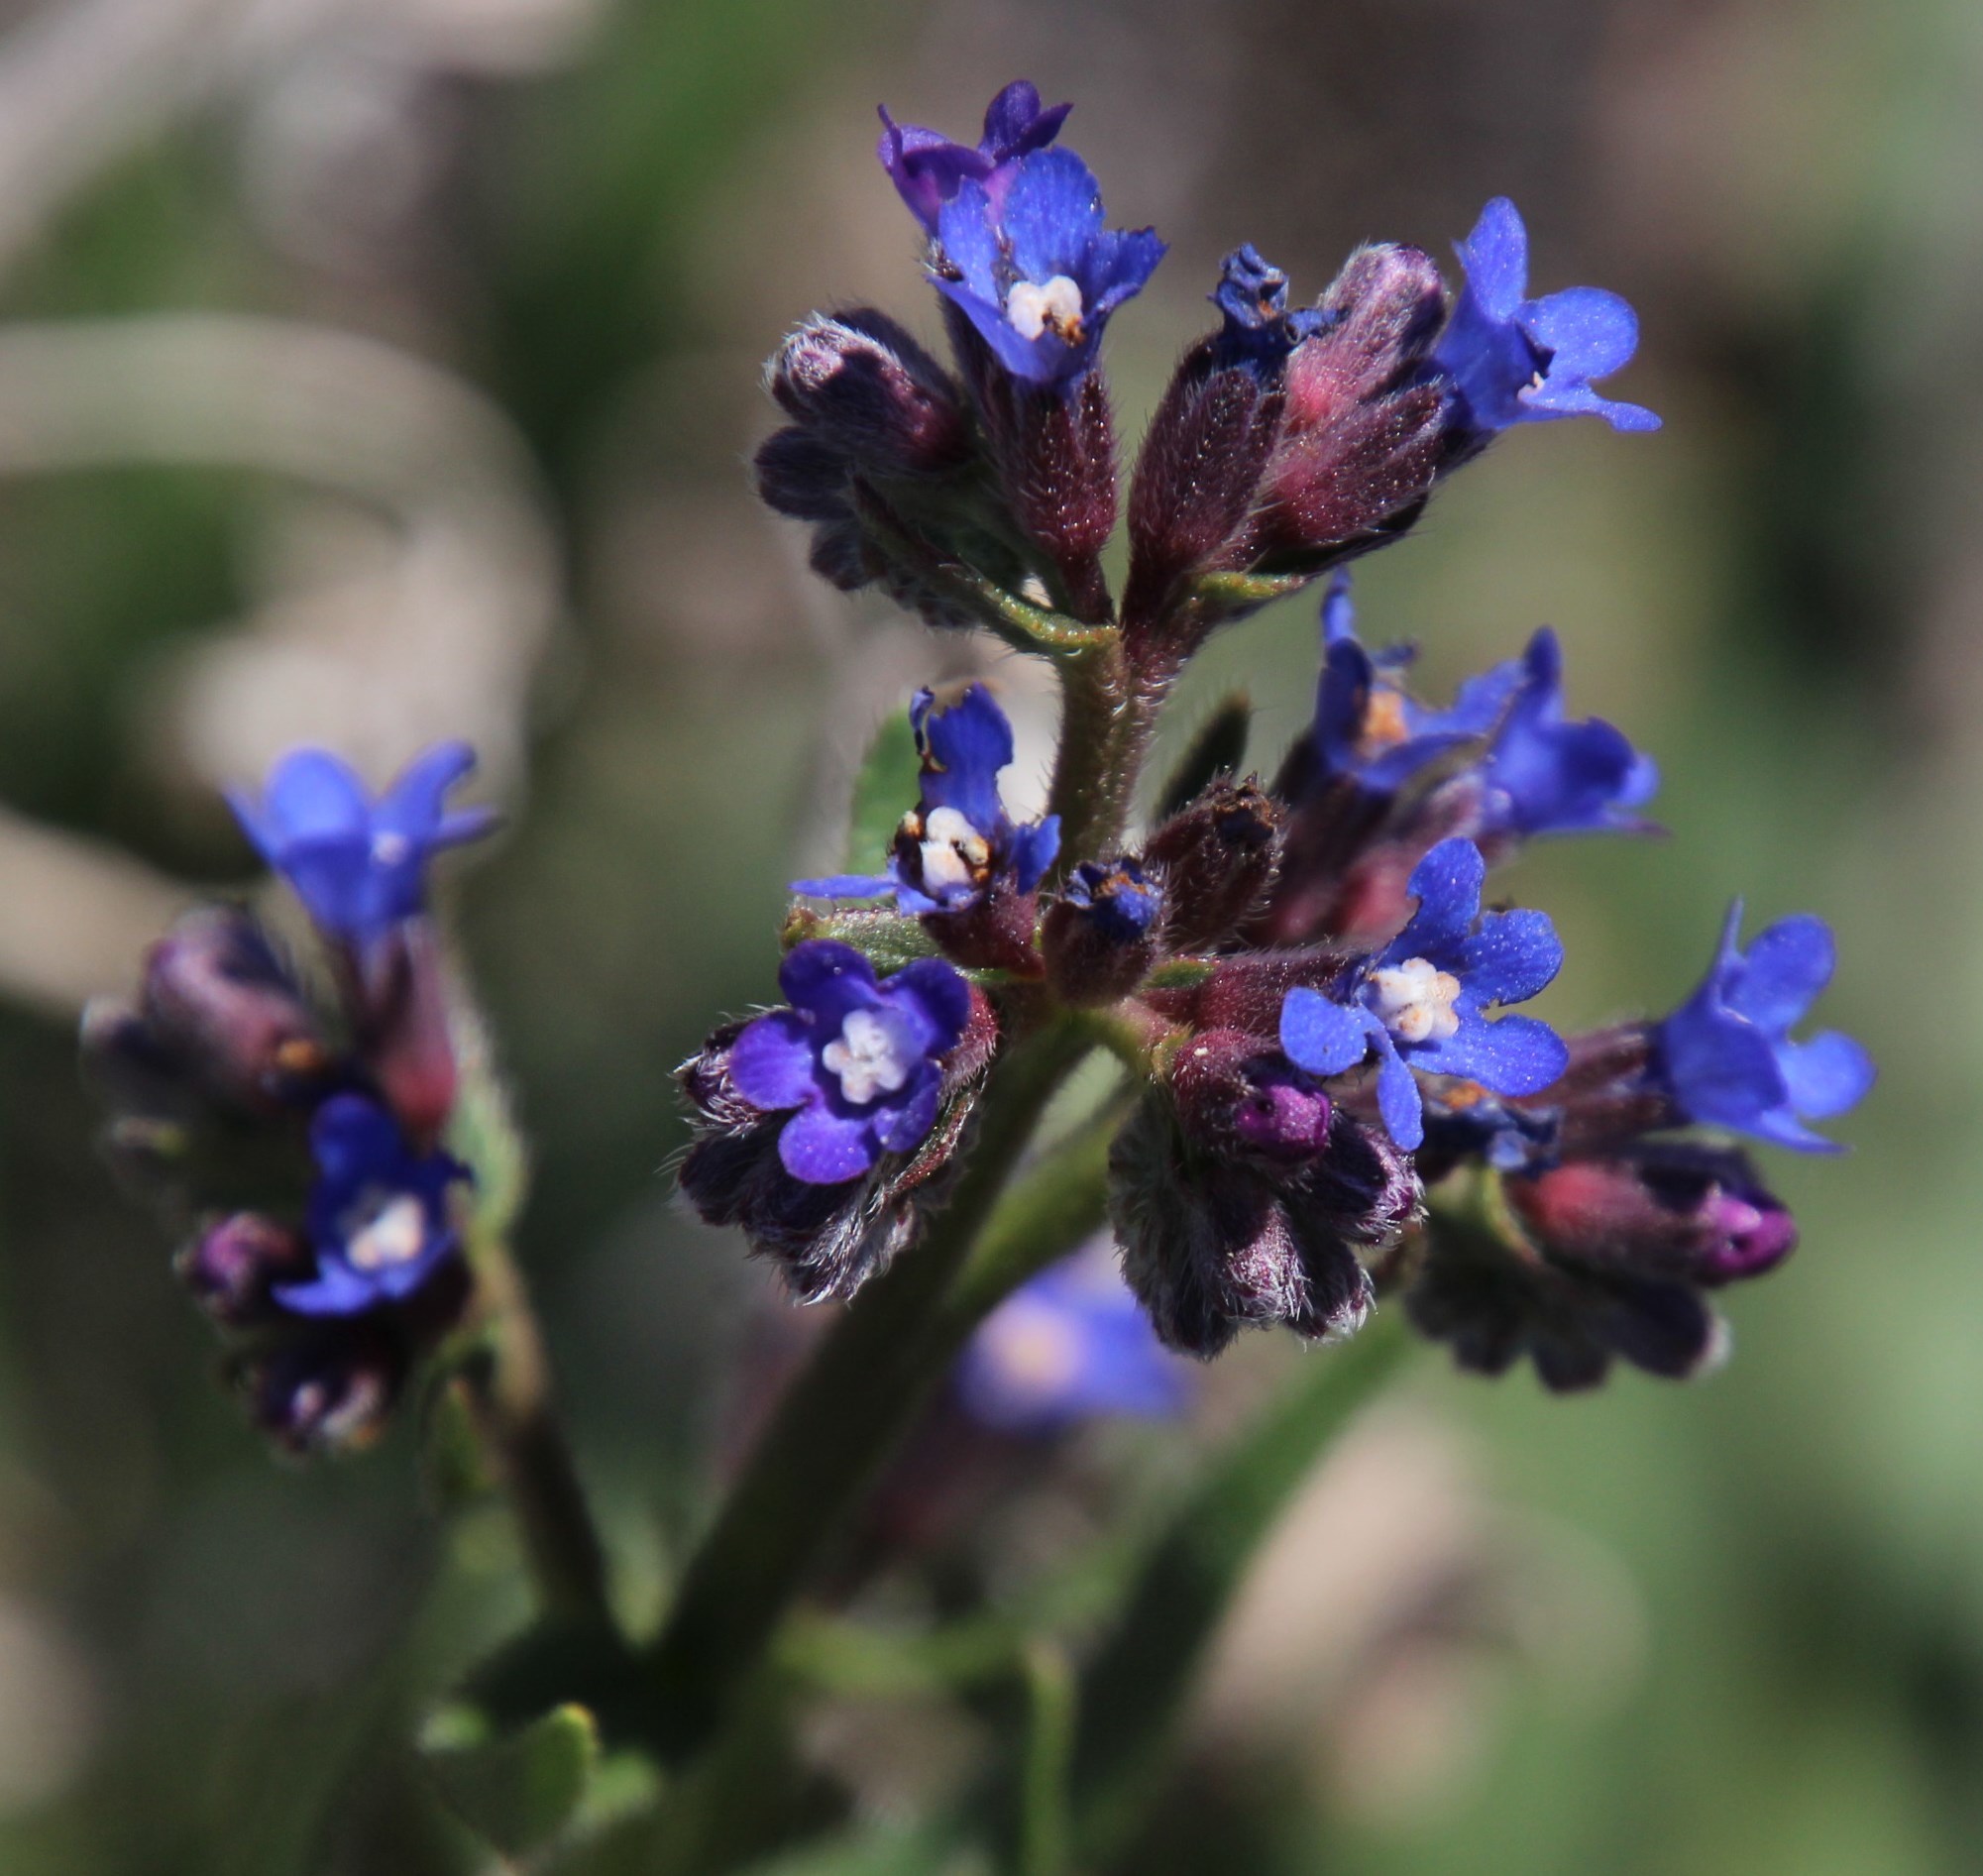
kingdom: Plantae
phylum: Tracheophyta
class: Magnoliopsida
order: Boraginales
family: Boraginaceae
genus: Anchusa
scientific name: Anchusa capensis
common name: Cape bugloss
